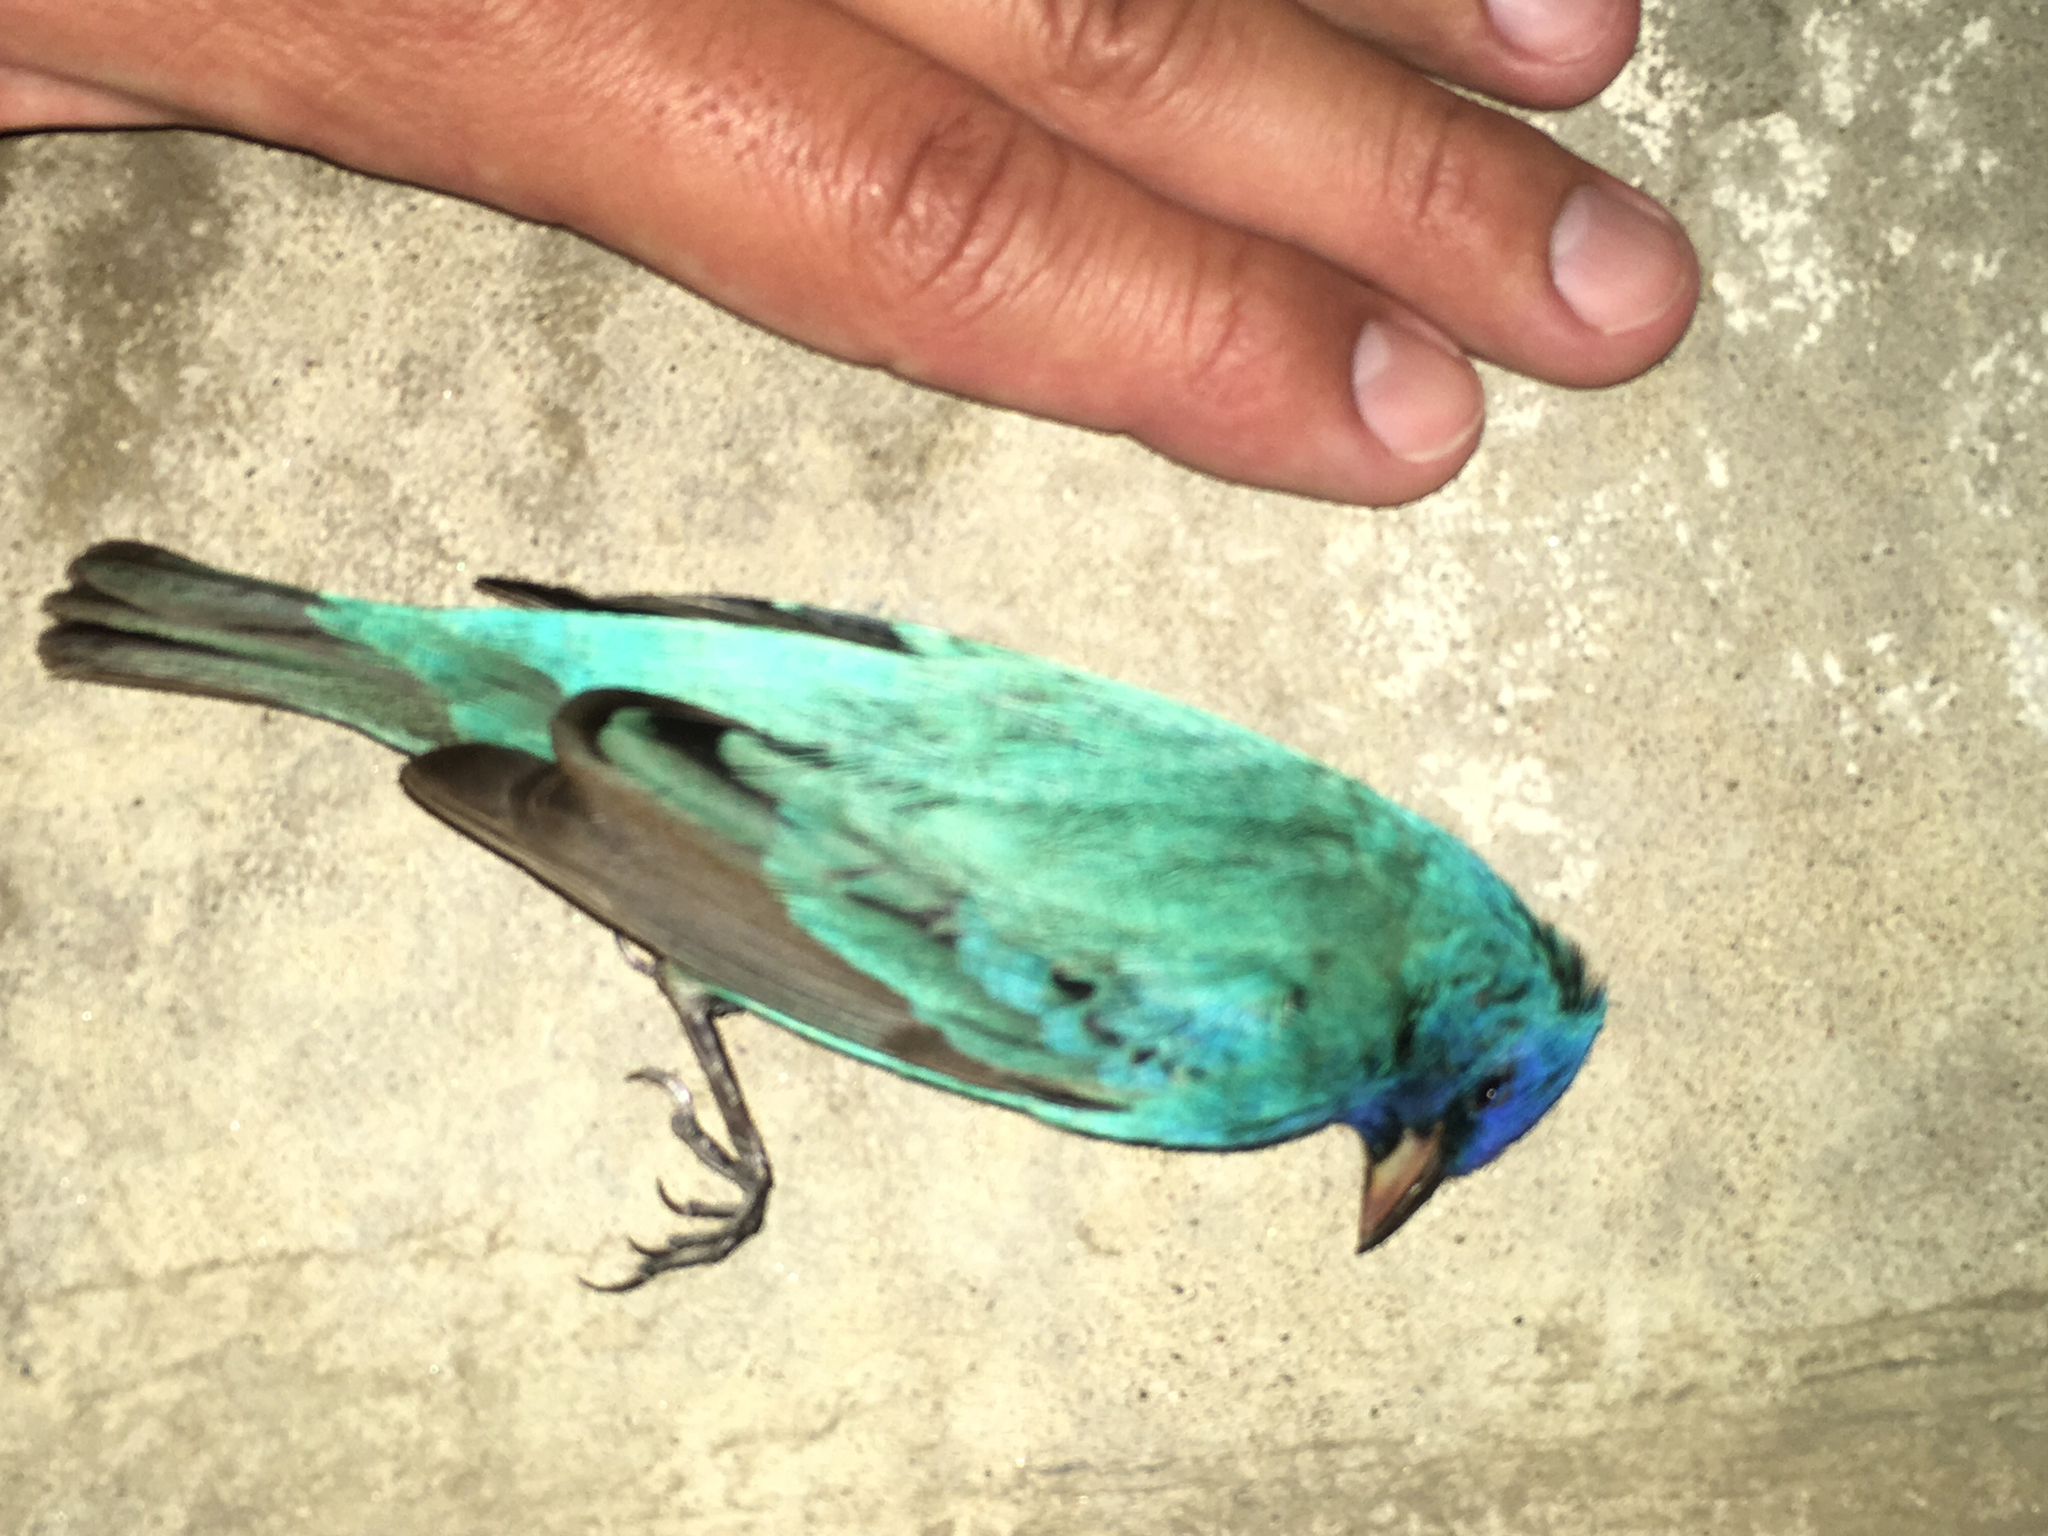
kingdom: Animalia
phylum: Chordata
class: Aves
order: Passeriformes
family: Cardinalidae
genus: Passerina
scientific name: Passerina cyanea
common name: Indigo bunting
